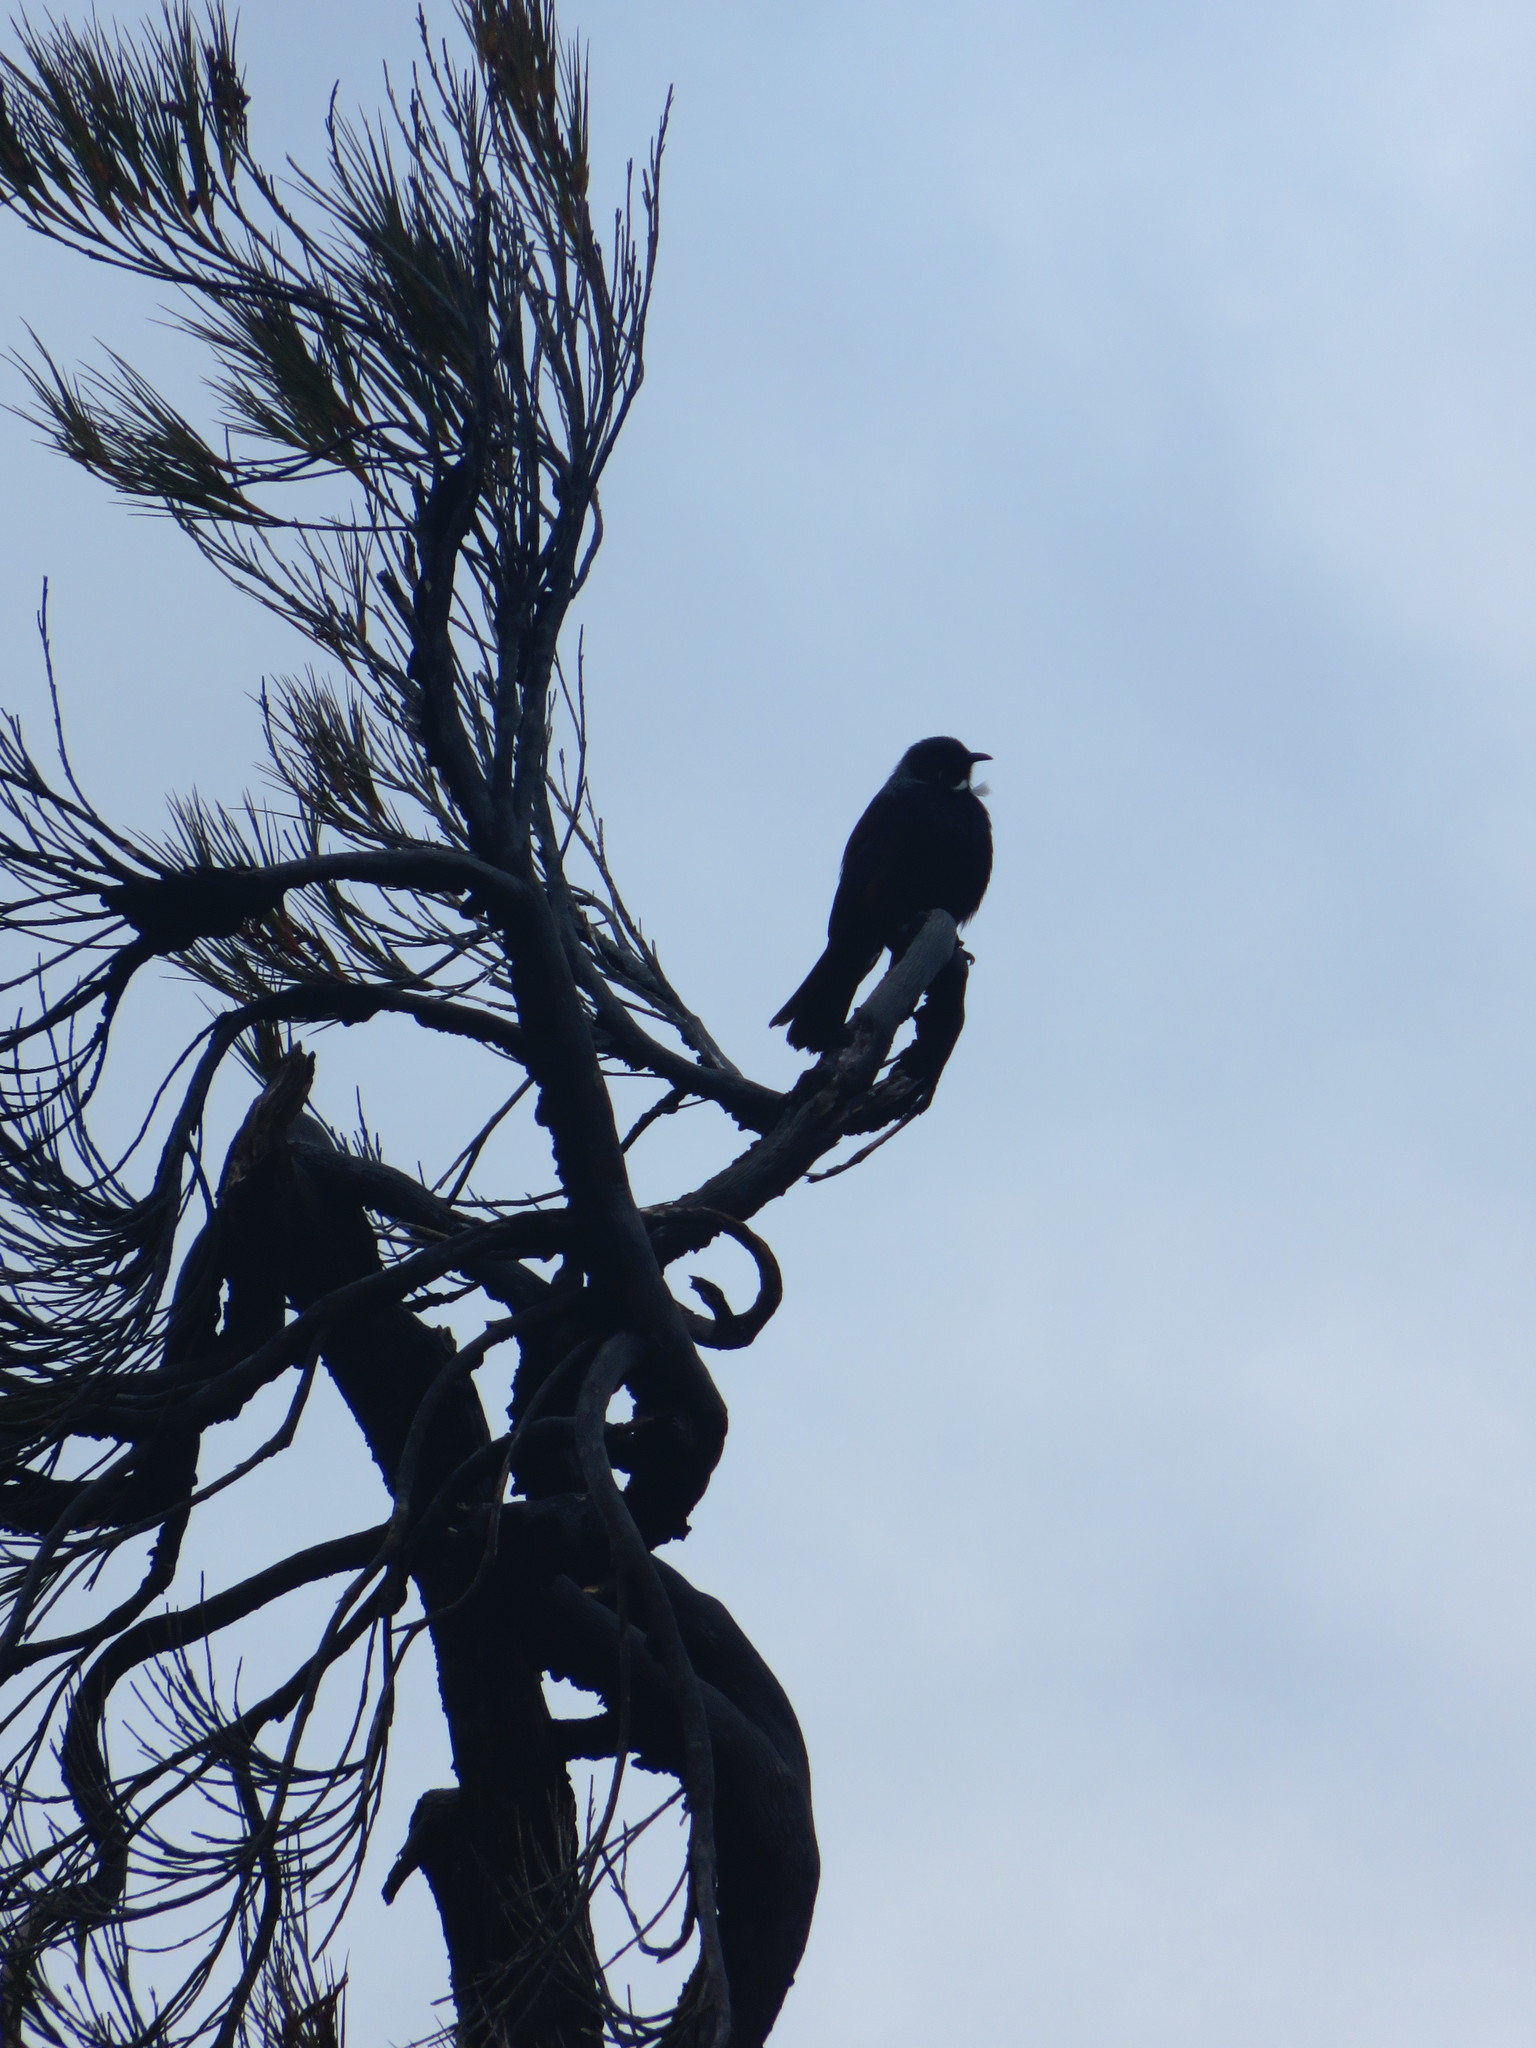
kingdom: Animalia
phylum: Chordata
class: Aves
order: Passeriformes
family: Meliphagidae
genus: Prosthemadera
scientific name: Prosthemadera novaeseelandiae
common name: Tui
